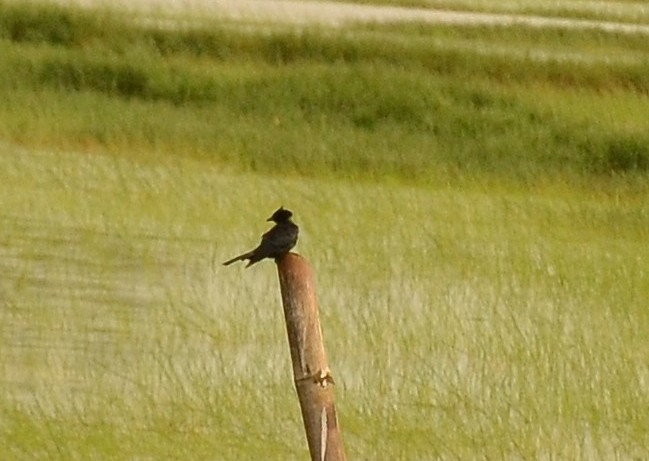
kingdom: Animalia
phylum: Chordata
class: Aves
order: Passeriformes
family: Dicruridae
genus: Dicrurus
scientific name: Dicrurus macrocercus
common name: Black drongo
